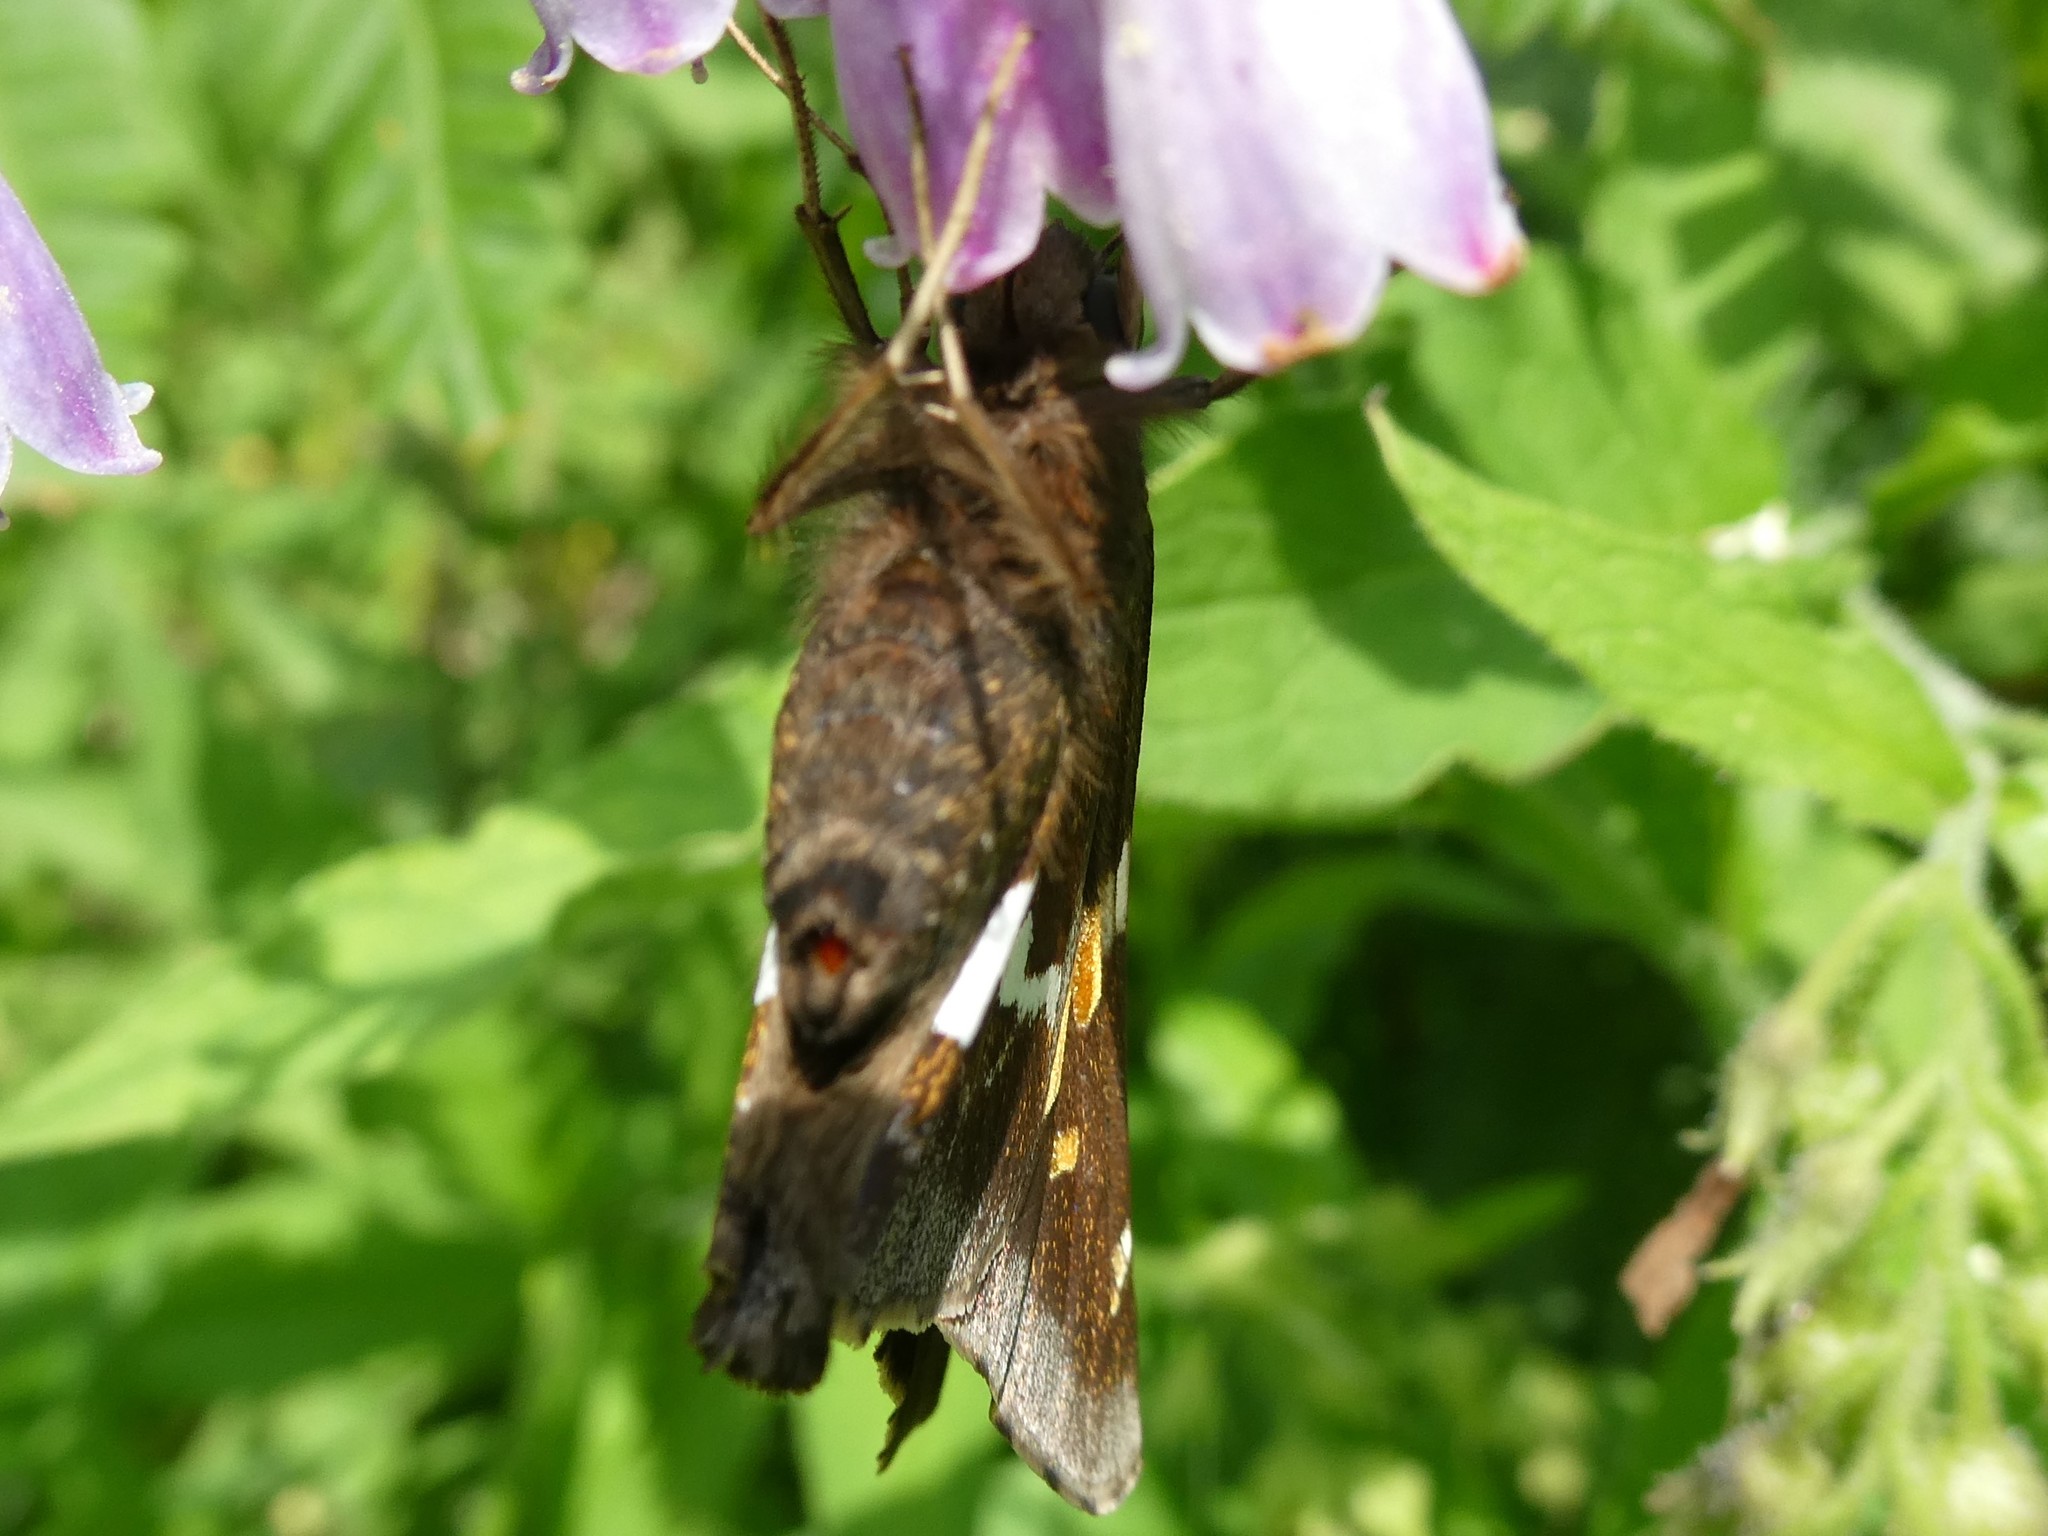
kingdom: Animalia
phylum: Arthropoda
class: Insecta
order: Lepidoptera
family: Hesperiidae
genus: Epargyreus
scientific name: Epargyreus clarus
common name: Silver-spotted skipper
